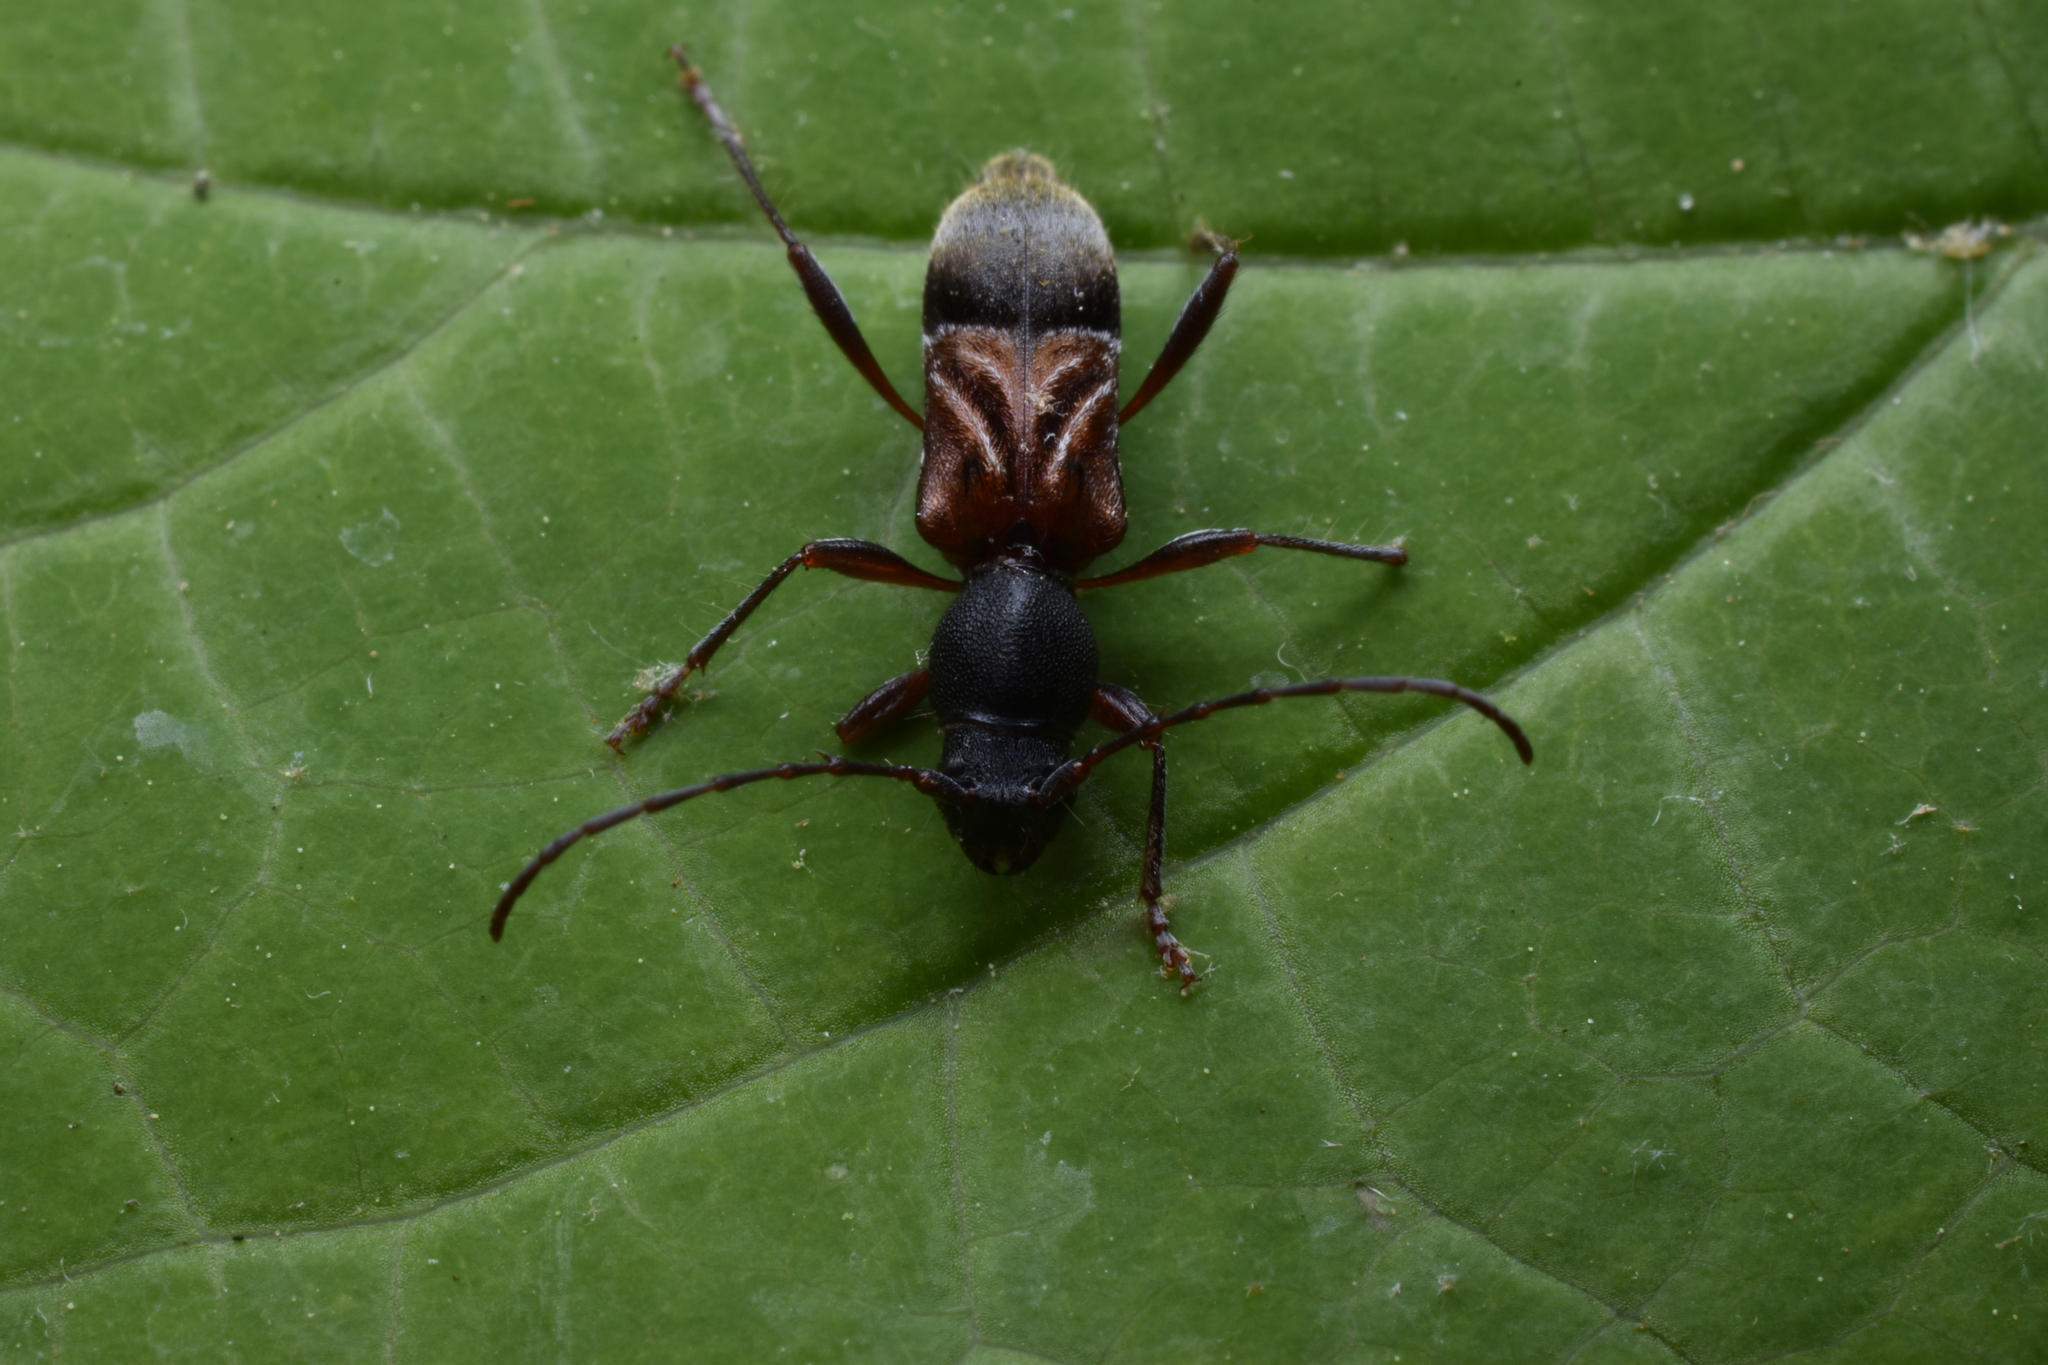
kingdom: Animalia
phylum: Arthropoda
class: Insecta
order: Coleoptera
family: Cerambycidae
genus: Cyrtophorus
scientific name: Cyrtophorus verrucosus
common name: Ant-like longhorn beetle
